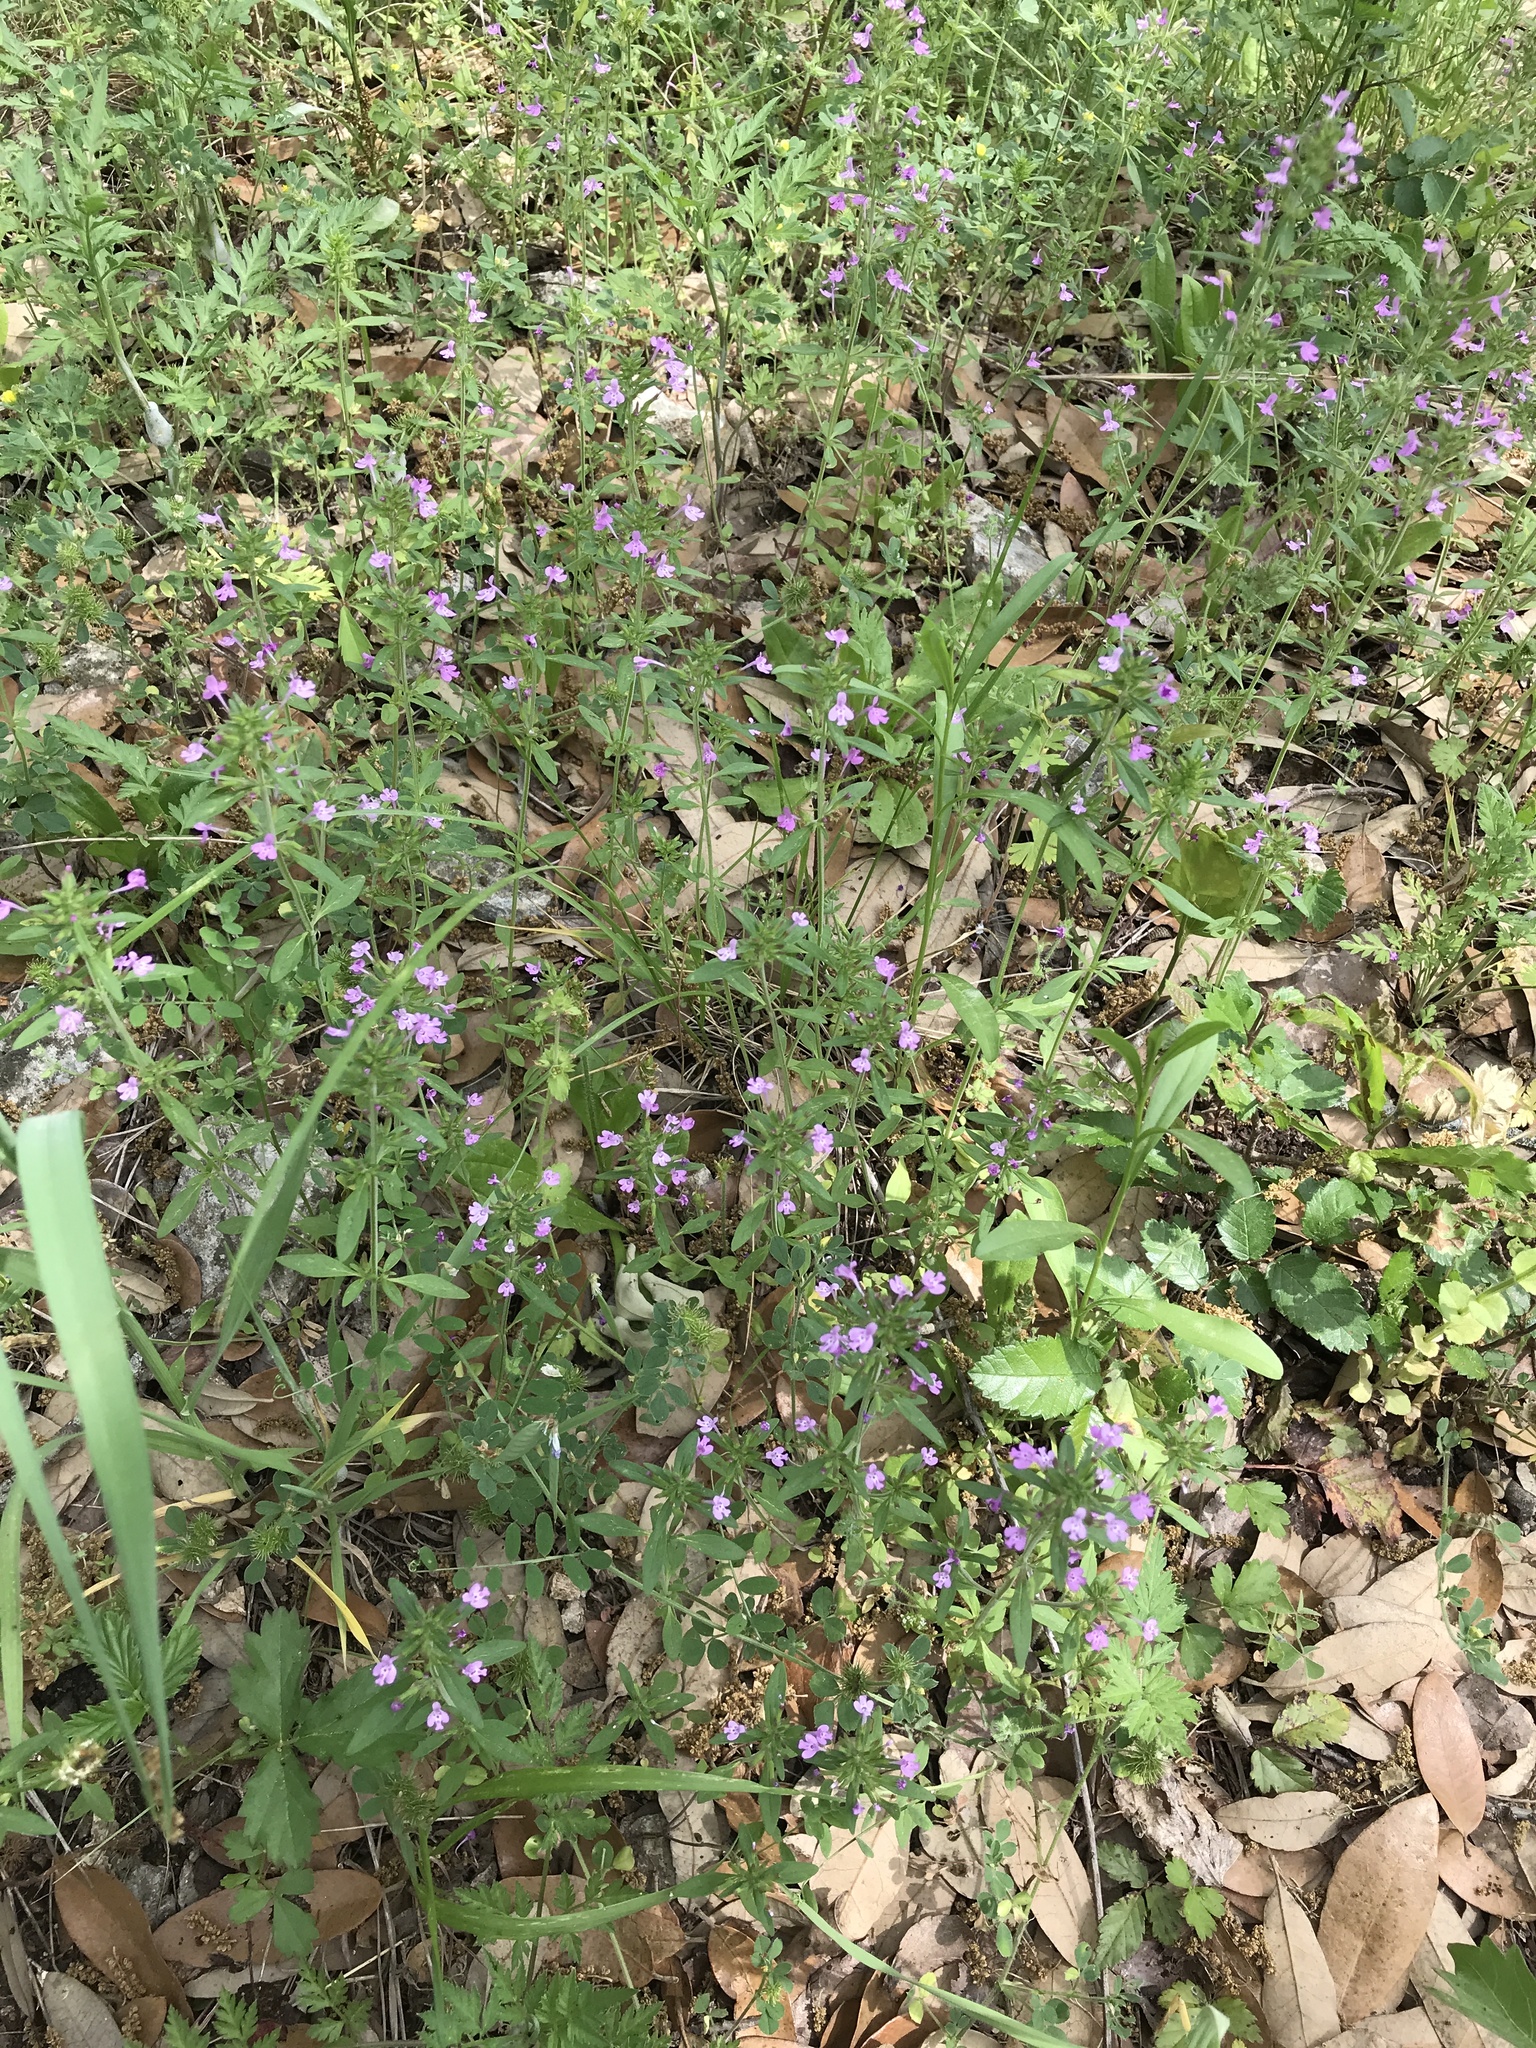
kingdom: Plantae
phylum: Tracheophyta
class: Magnoliopsida
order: Lamiales
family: Lamiaceae
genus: Hedeoma
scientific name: Hedeoma acinoides
